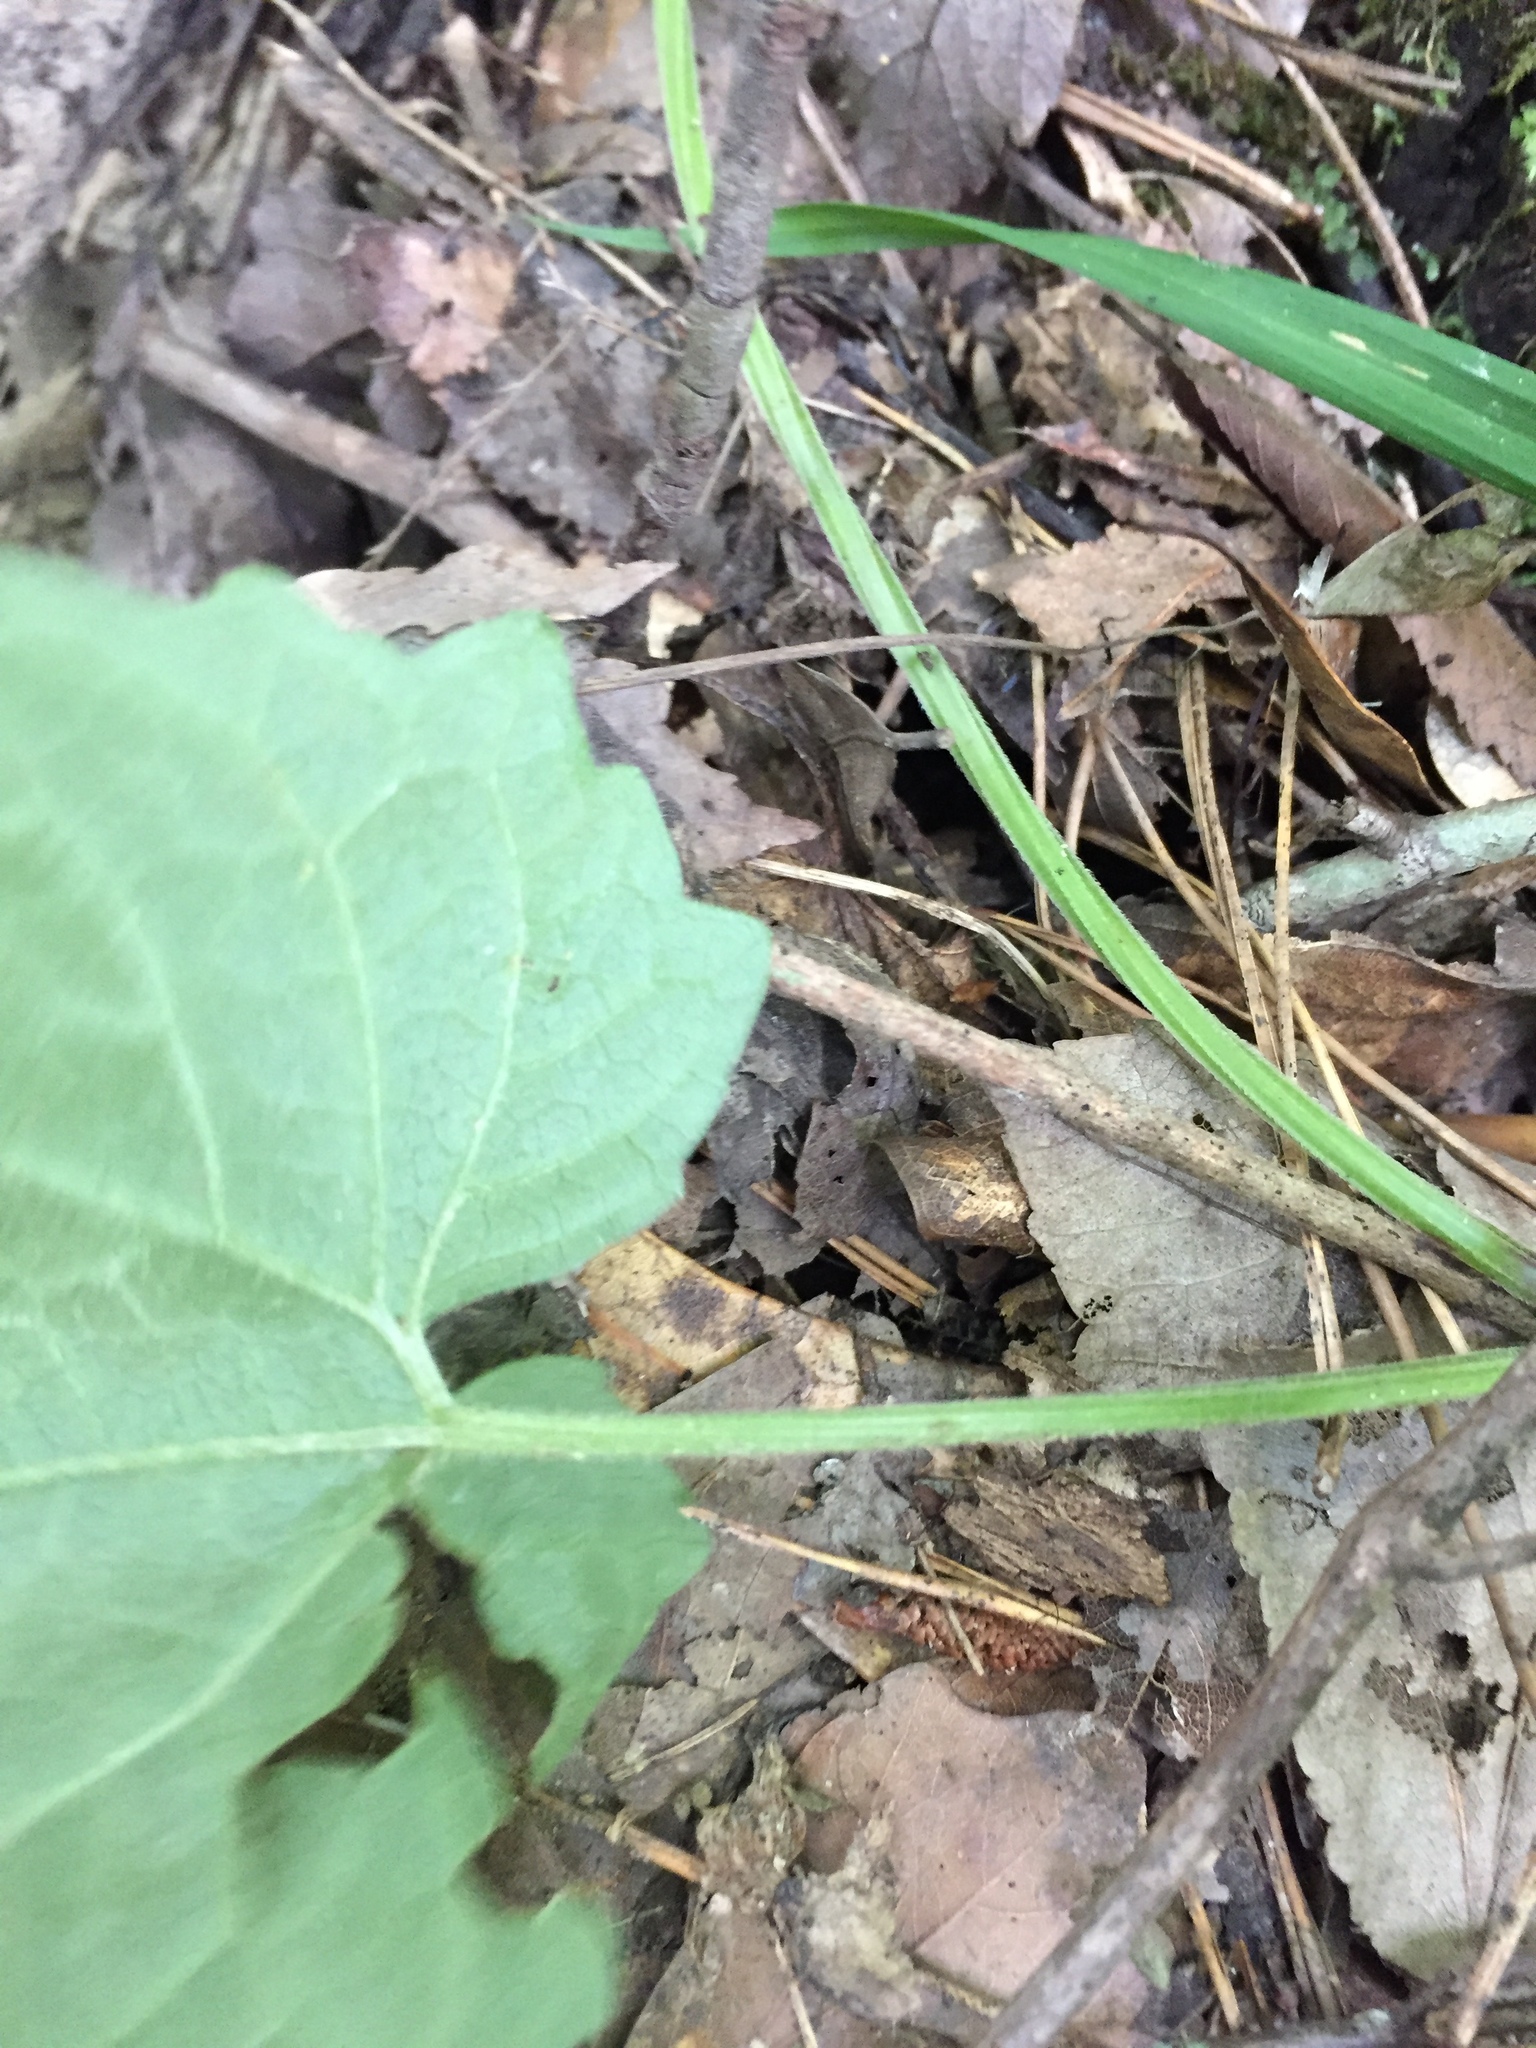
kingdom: Plantae
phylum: Tracheophyta
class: Magnoliopsida
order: Asterales
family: Asteraceae
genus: Mikania
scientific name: Mikania cordifolia
